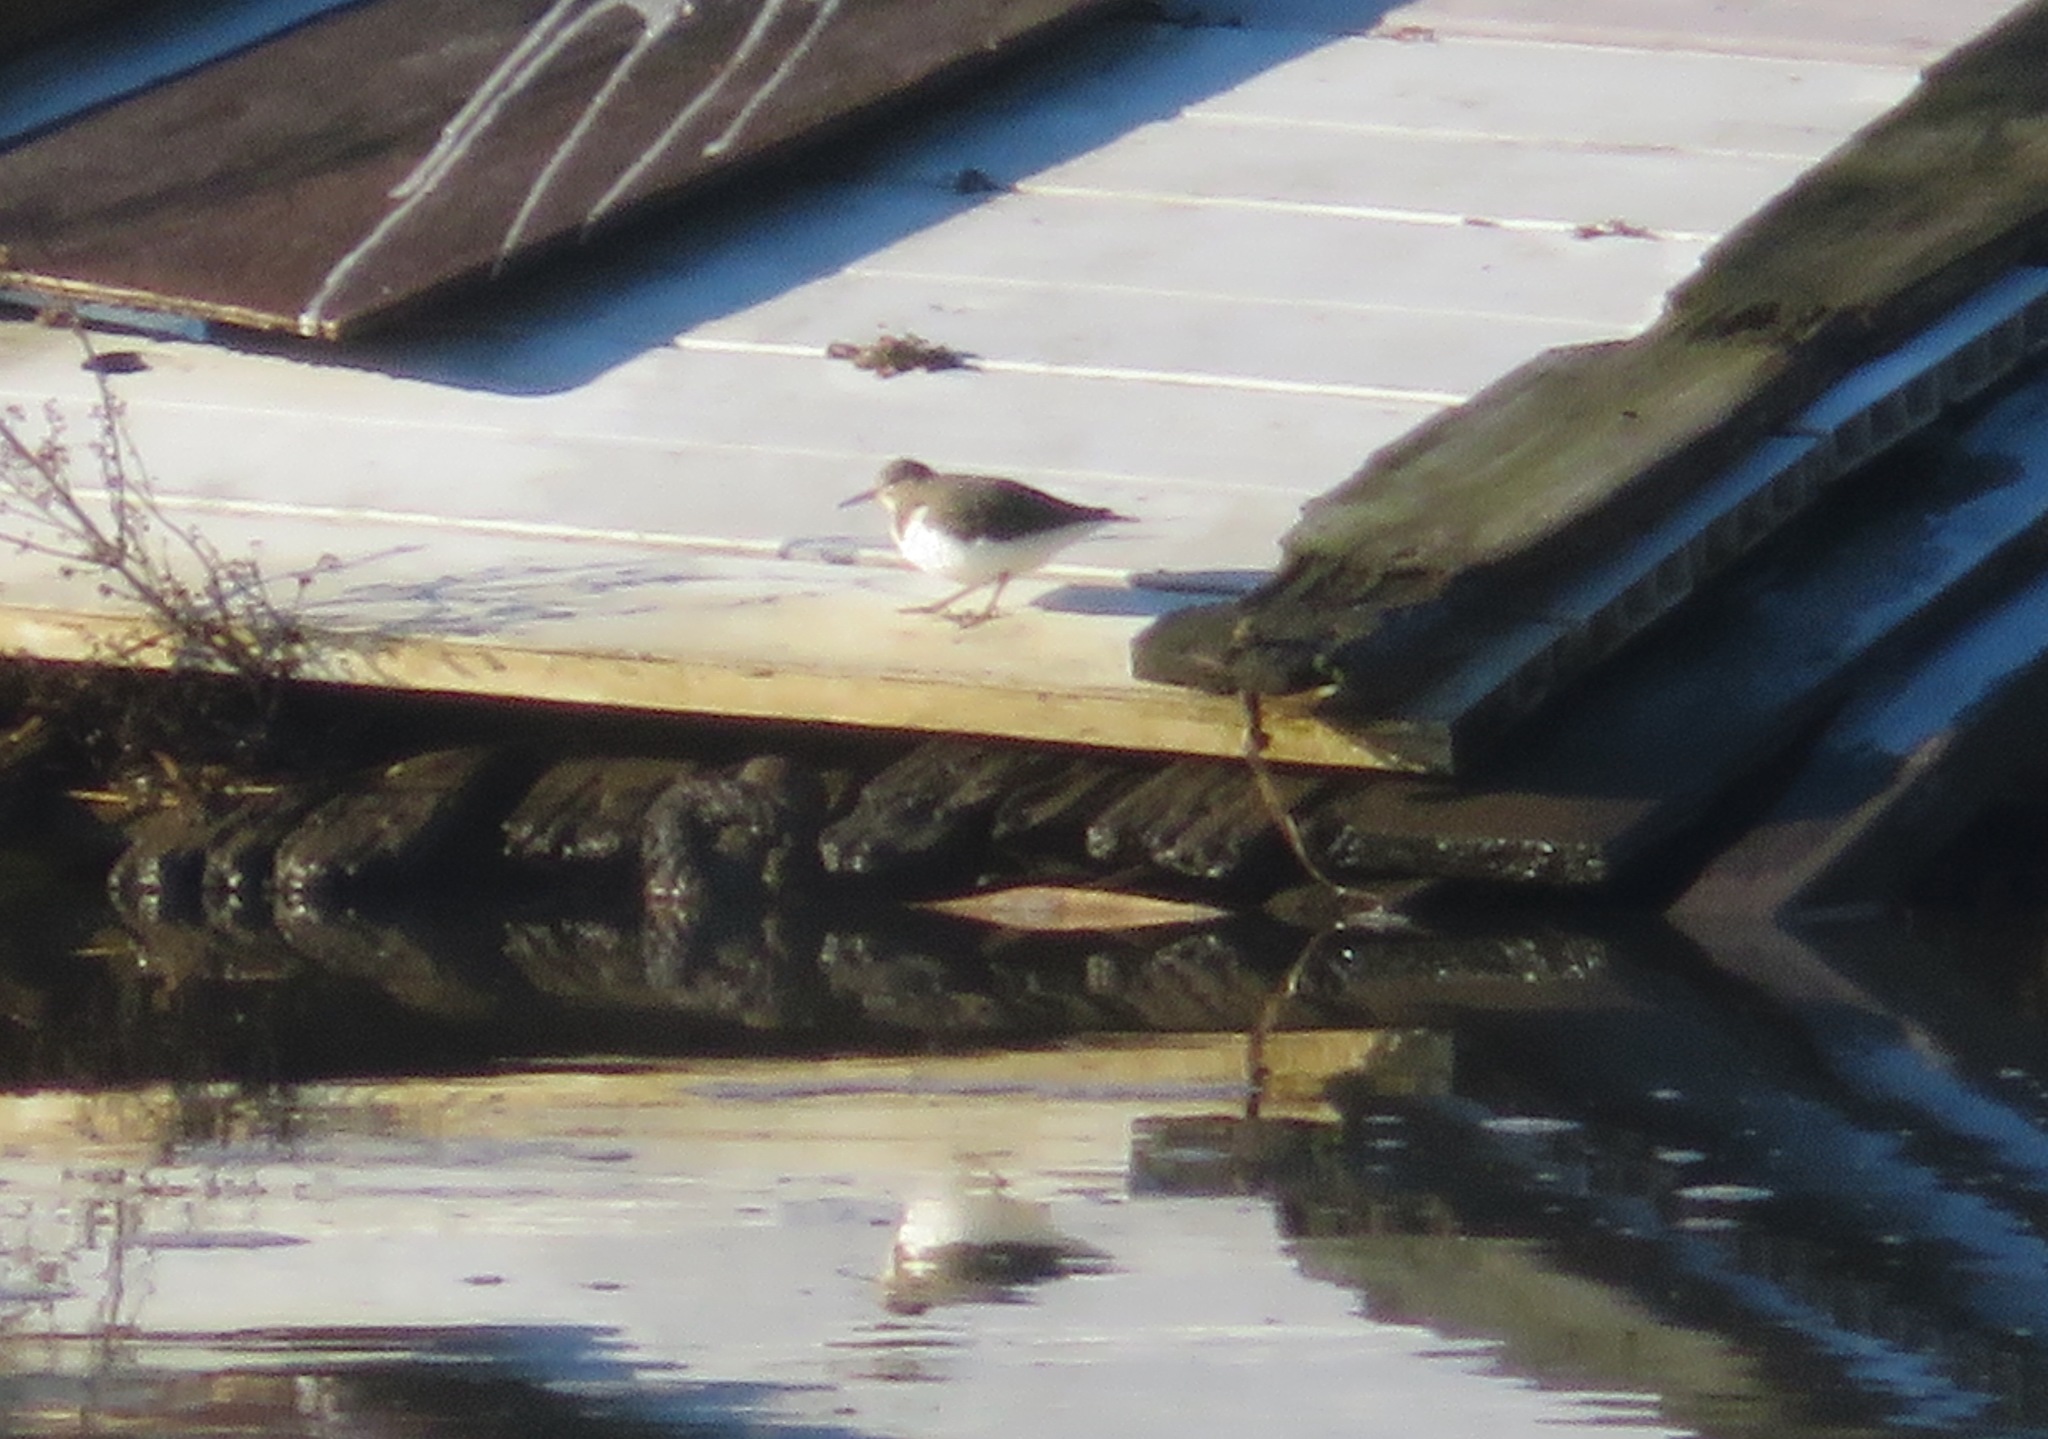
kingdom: Animalia
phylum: Chordata
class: Aves
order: Charadriiformes
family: Scolopacidae
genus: Actitis
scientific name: Actitis hypoleucos
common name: Common sandpiper
